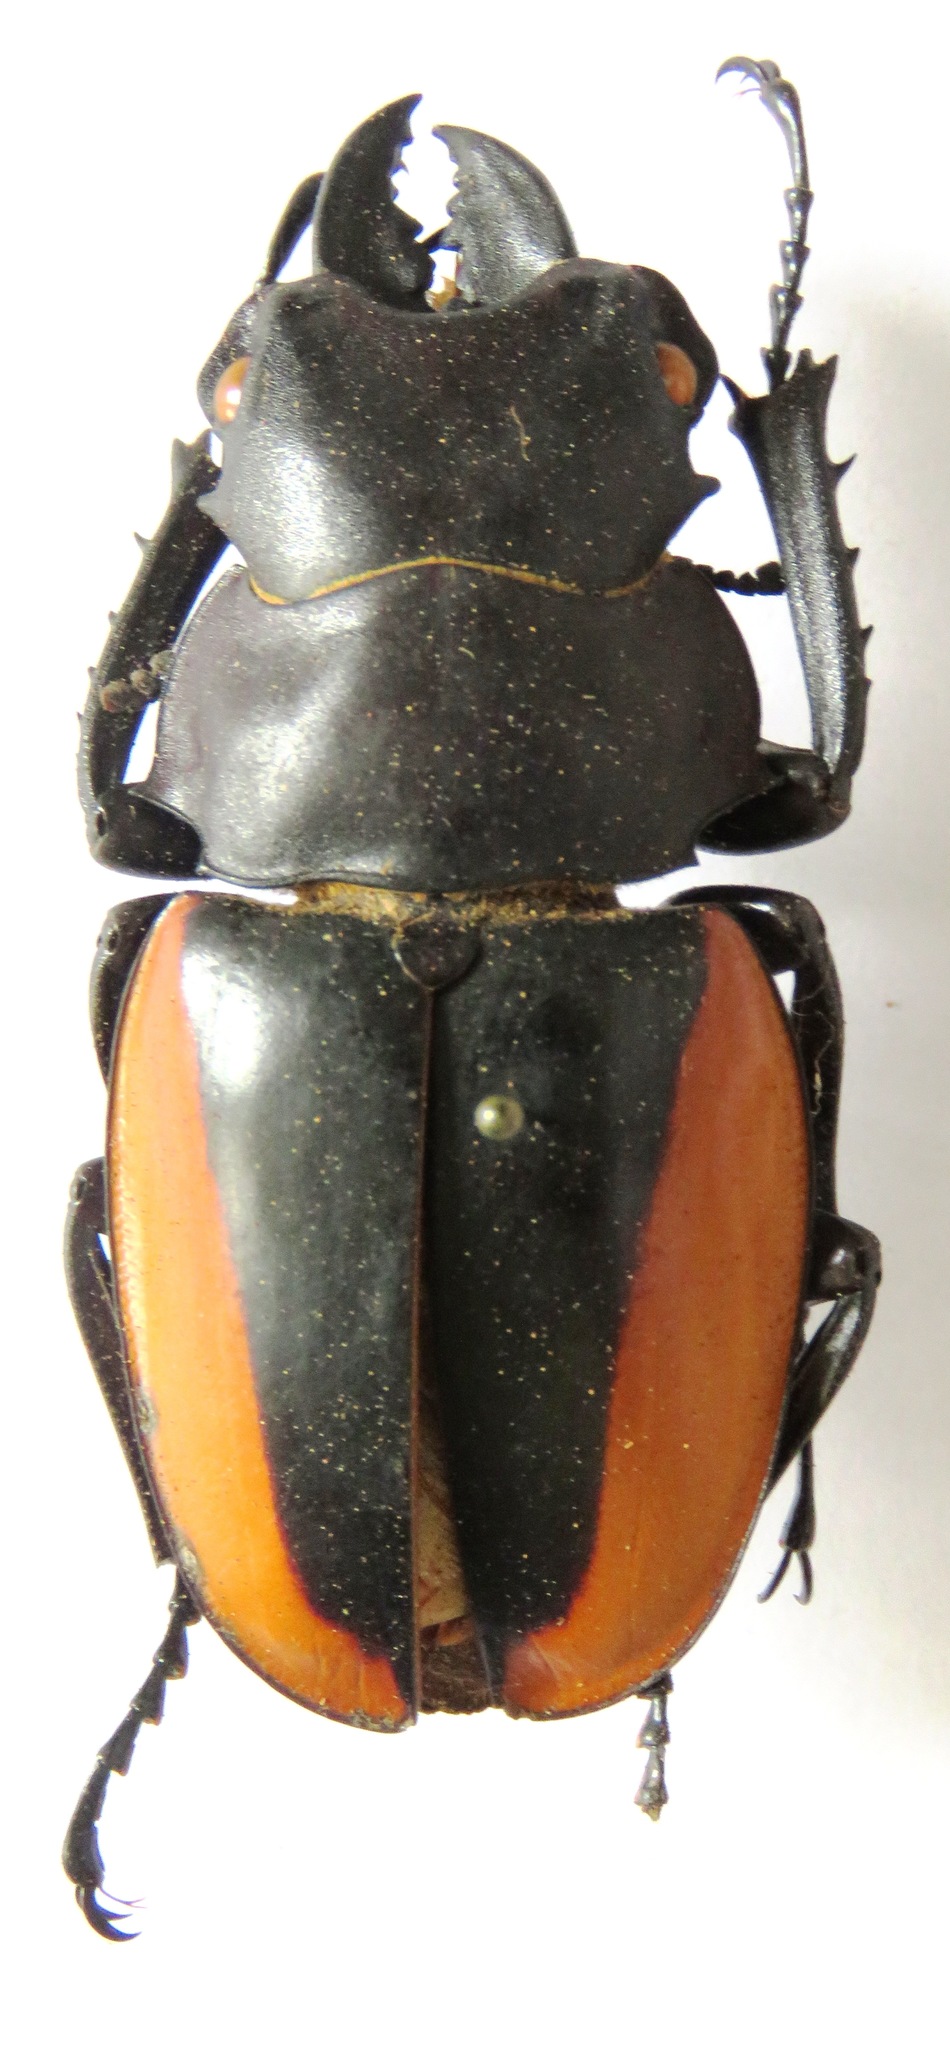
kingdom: Animalia
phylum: Arthropoda
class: Insecta
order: Coleoptera
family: Lucanidae
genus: Odontolabis
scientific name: Odontolabis cuvera
